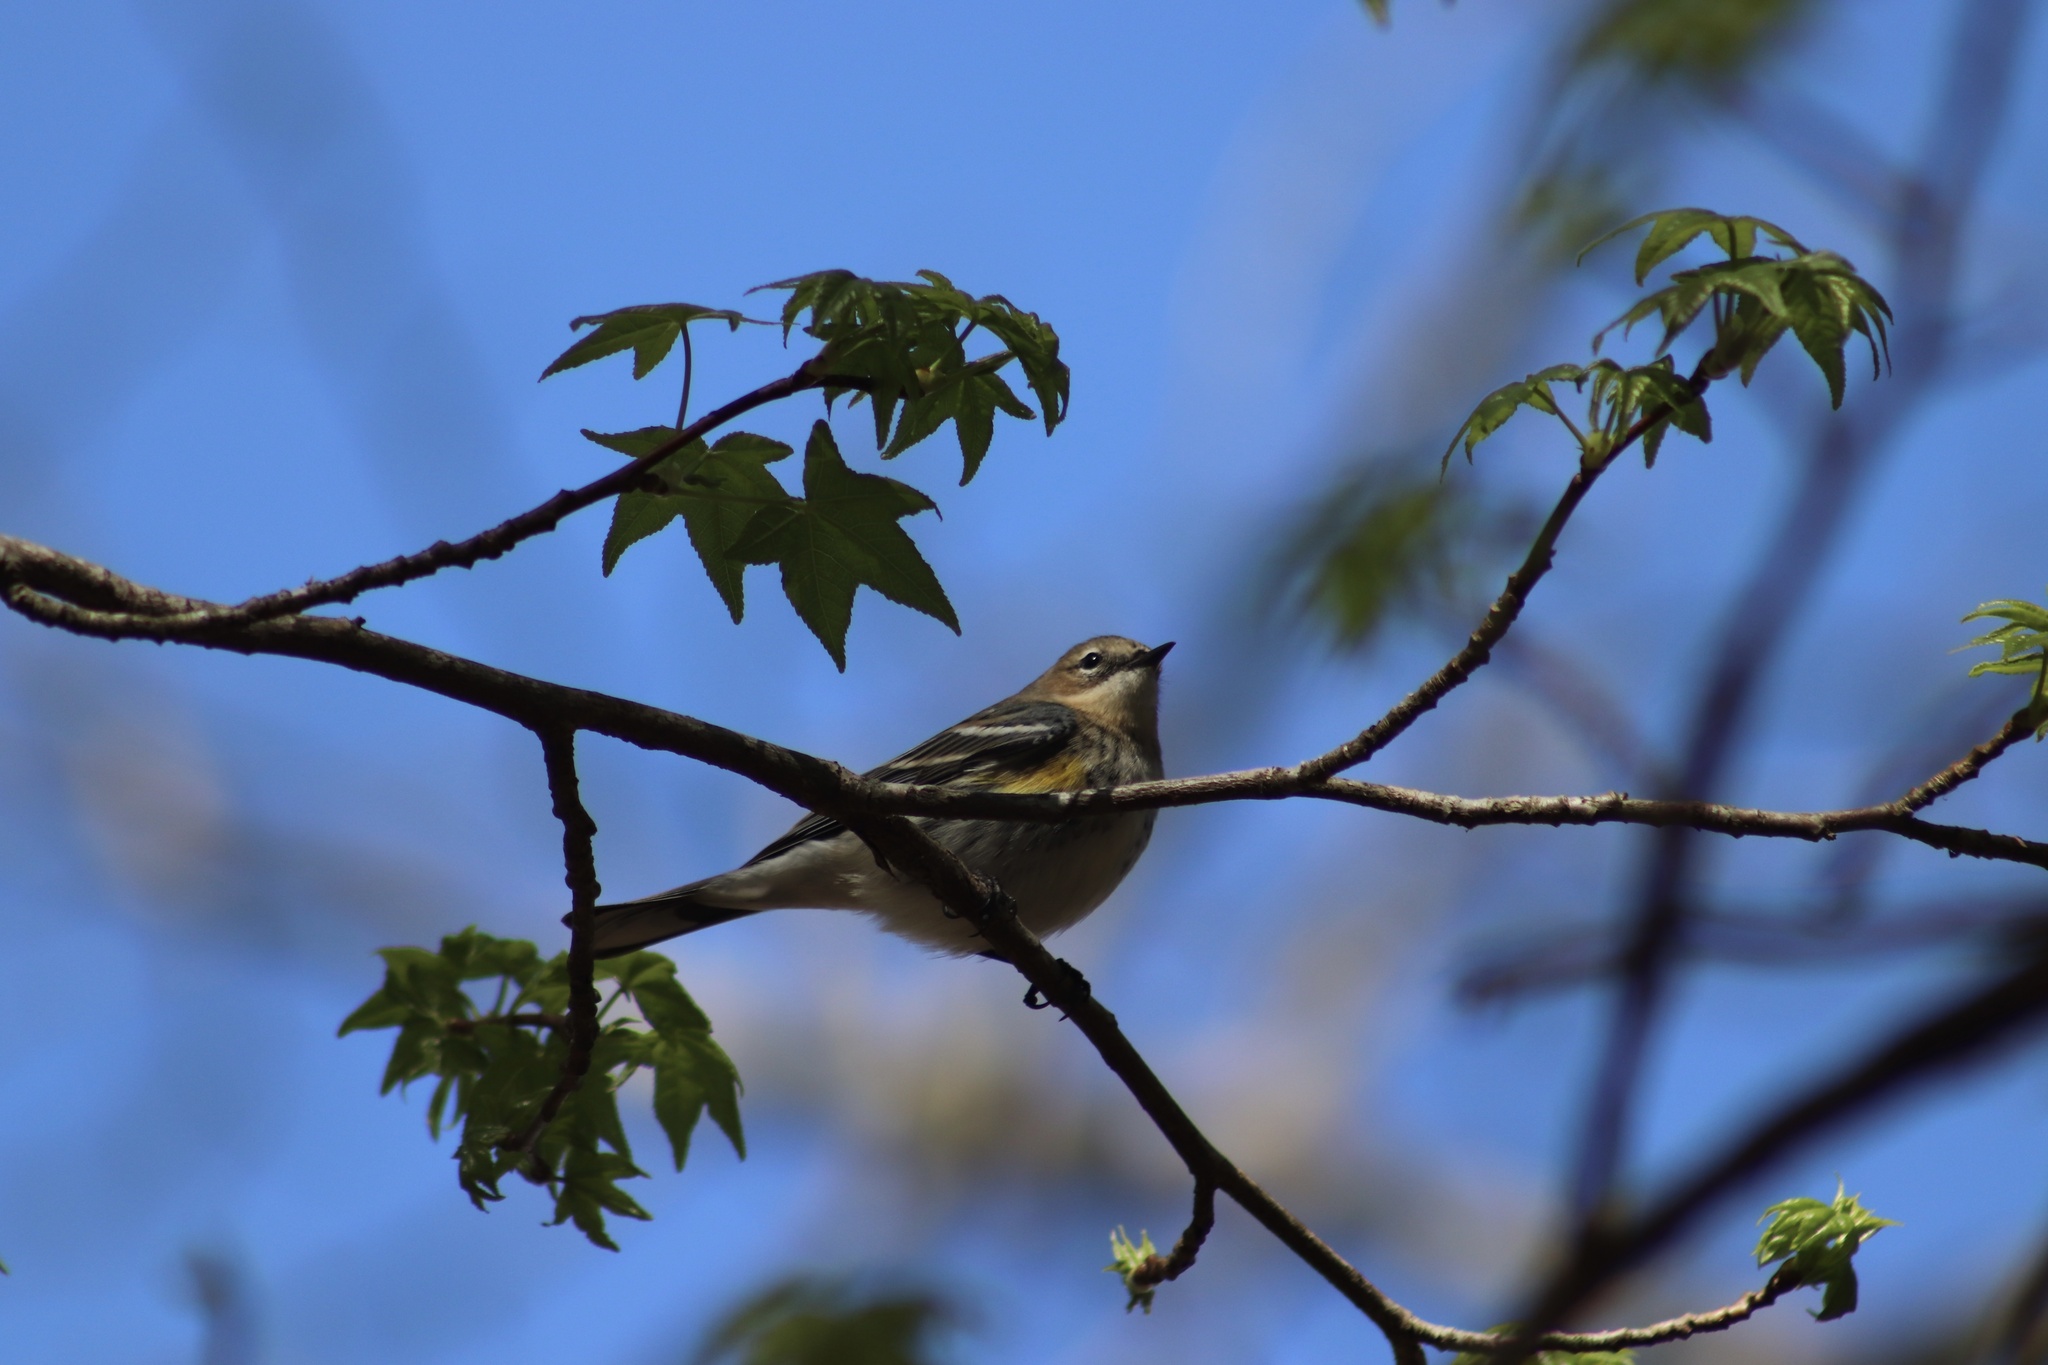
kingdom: Animalia
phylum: Chordata
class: Aves
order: Passeriformes
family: Parulidae
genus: Setophaga
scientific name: Setophaga coronata
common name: Myrtle warbler
